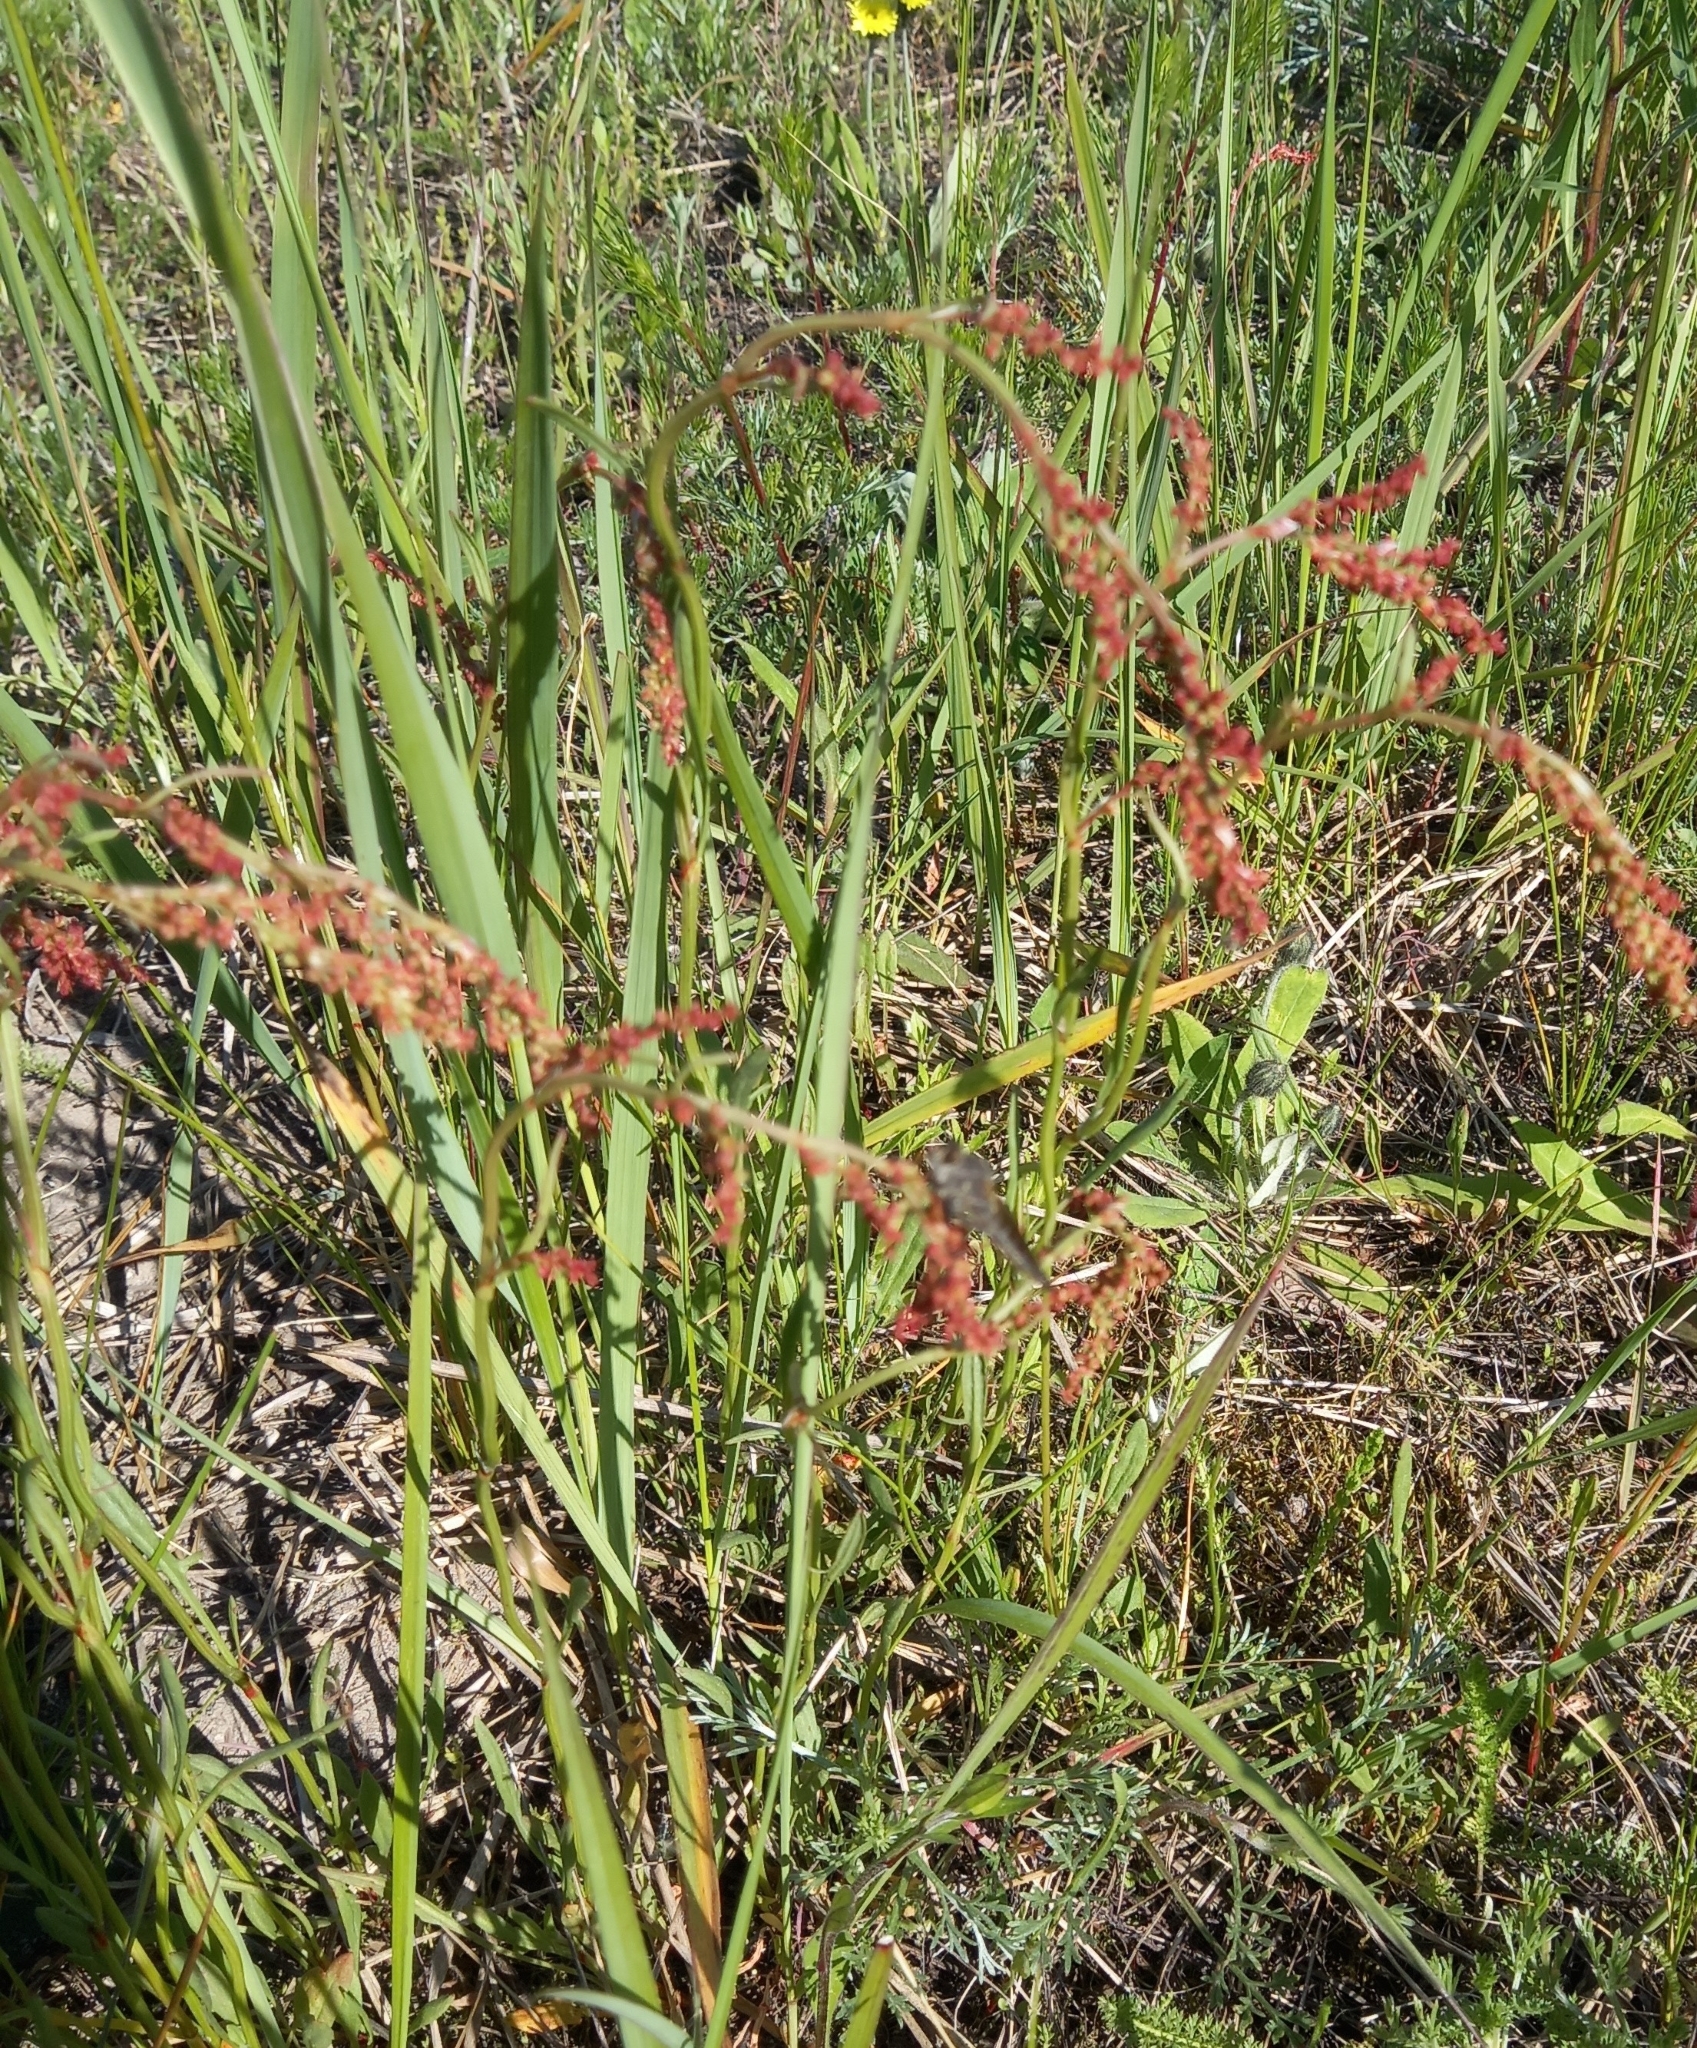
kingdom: Plantae
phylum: Tracheophyta
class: Magnoliopsida
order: Caryophyllales
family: Polygonaceae
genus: Rumex
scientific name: Rumex acetosella
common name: Common sheep sorrel
